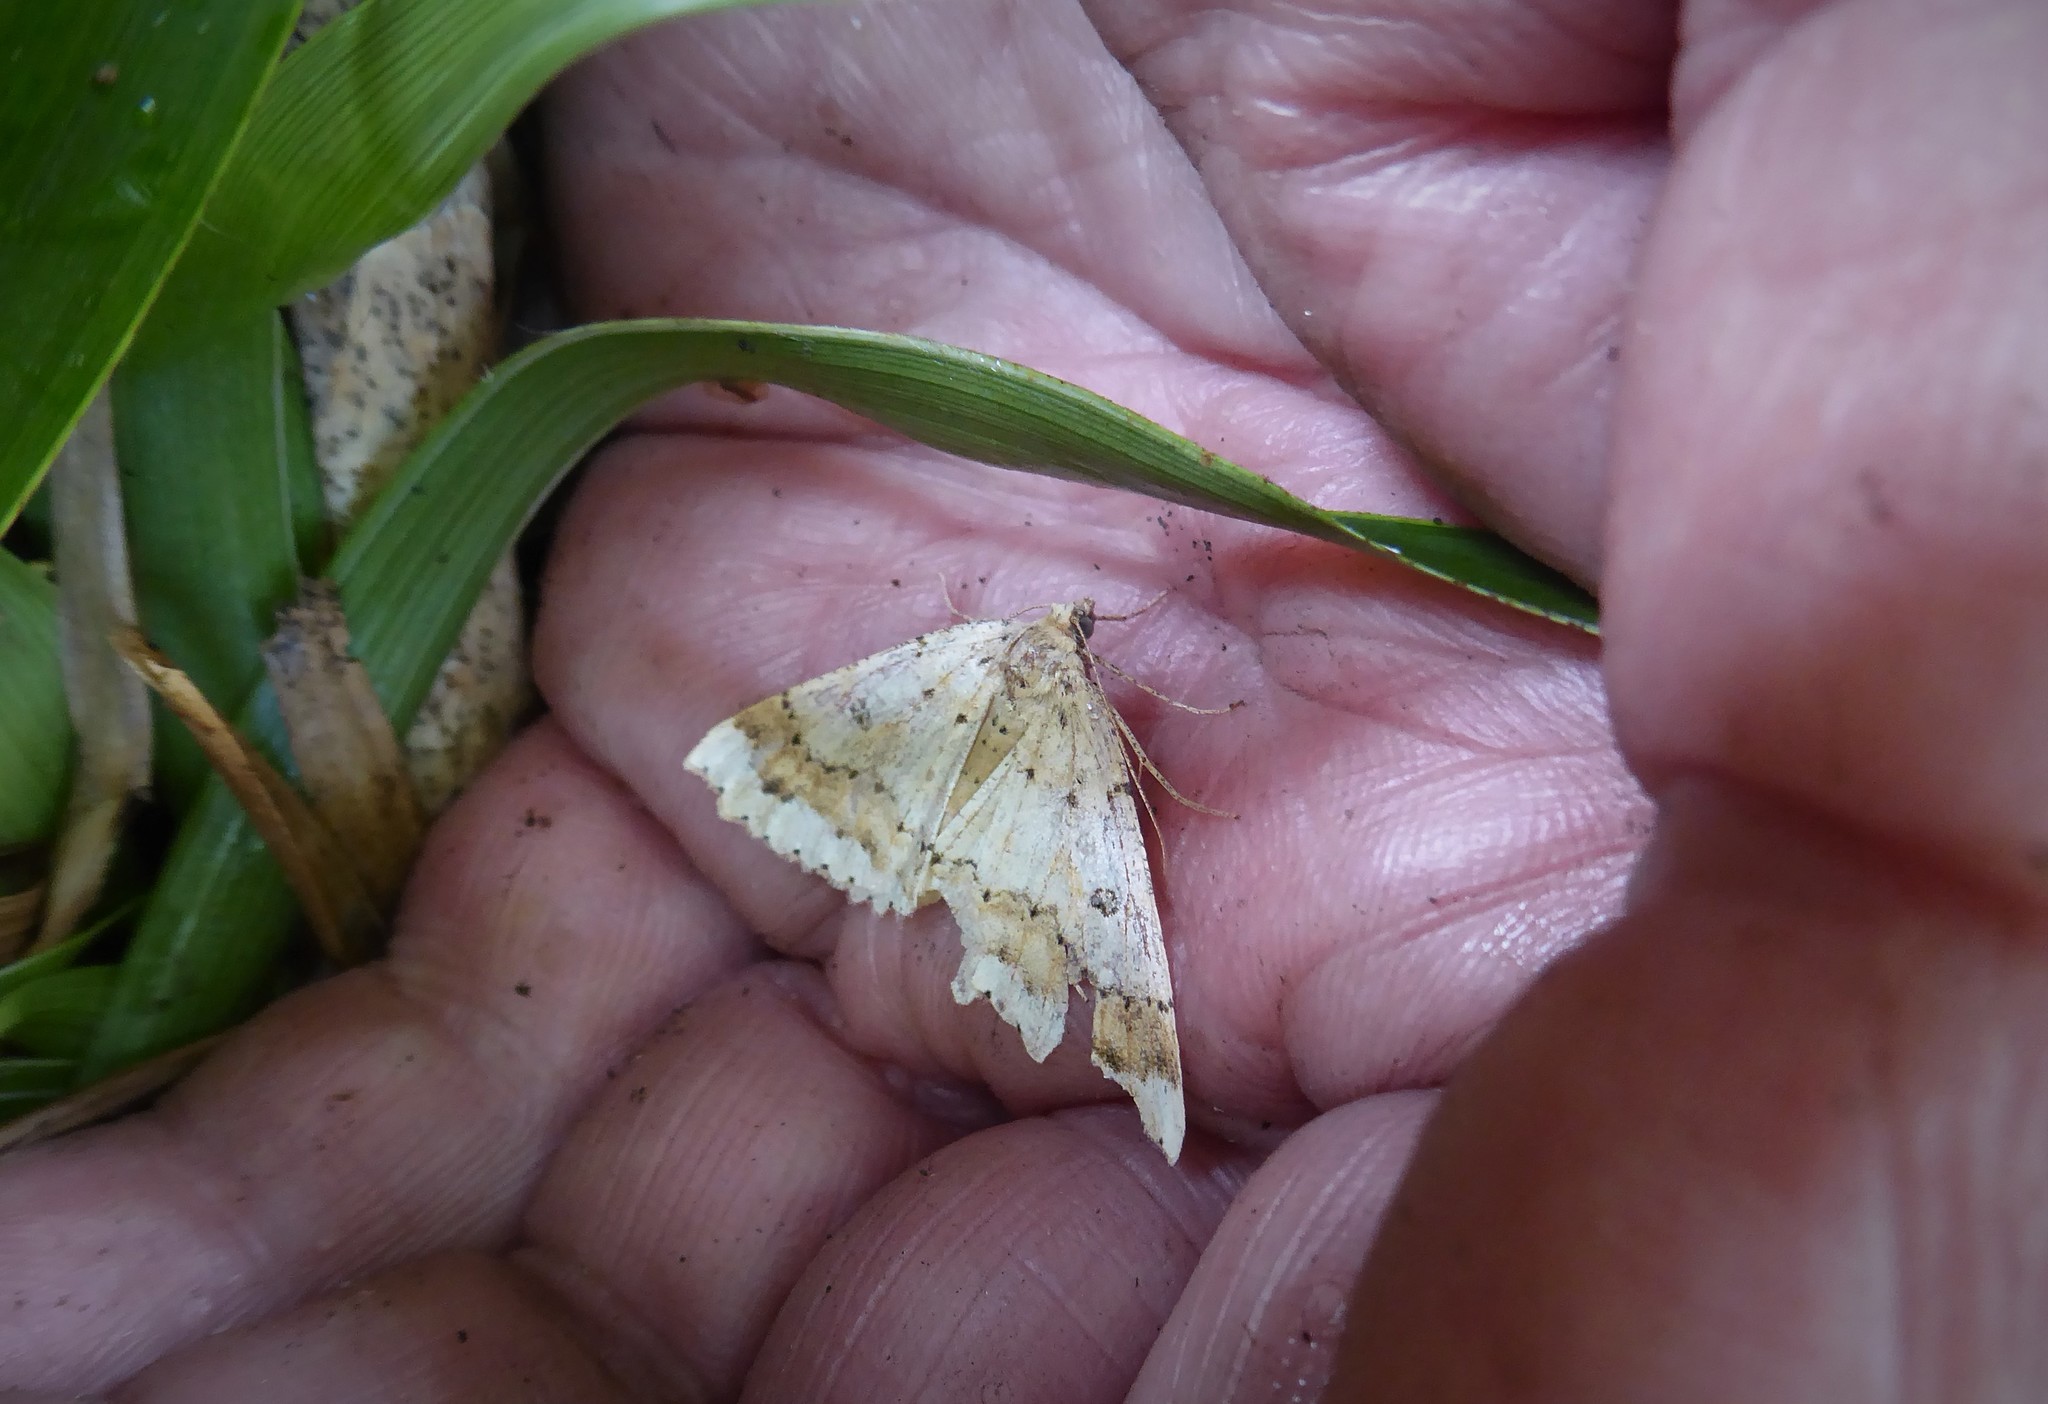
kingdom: Animalia
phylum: Arthropoda
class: Insecta
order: Lepidoptera
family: Geometridae
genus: Cleora
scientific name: Cleora scriptaria
